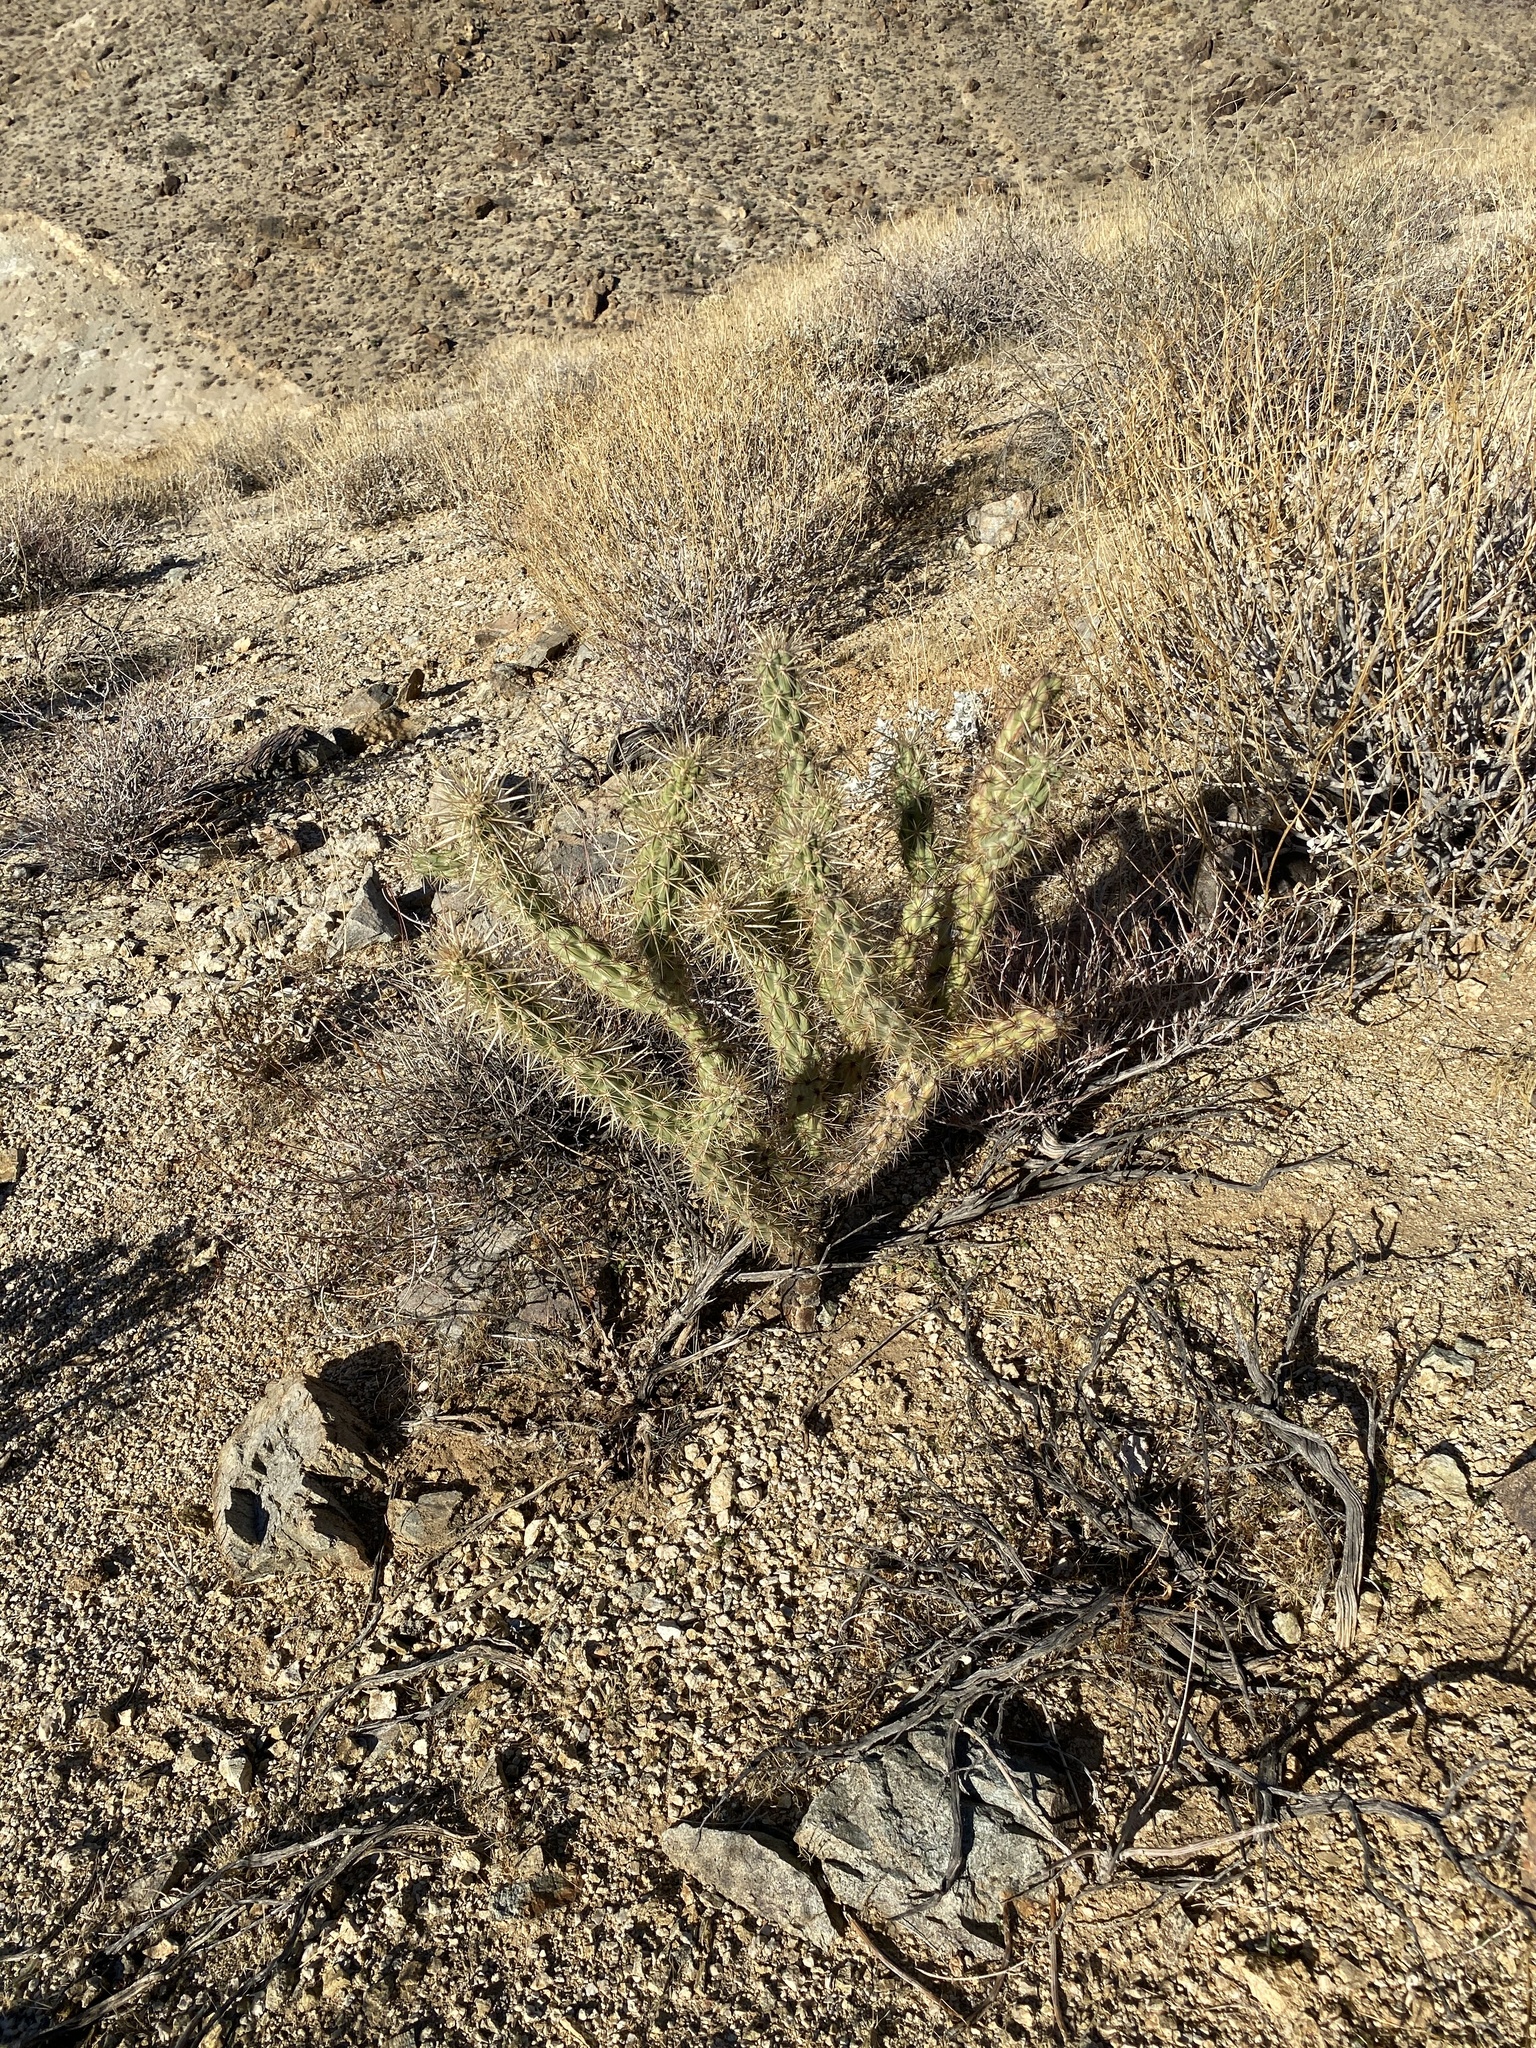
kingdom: Plantae
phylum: Tracheophyta
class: Magnoliopsida
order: Caryophyllales
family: Cactaceae
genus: Cylindropuntia
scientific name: Cylindropuntia acanthocarpa
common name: Buckhorn cholla
